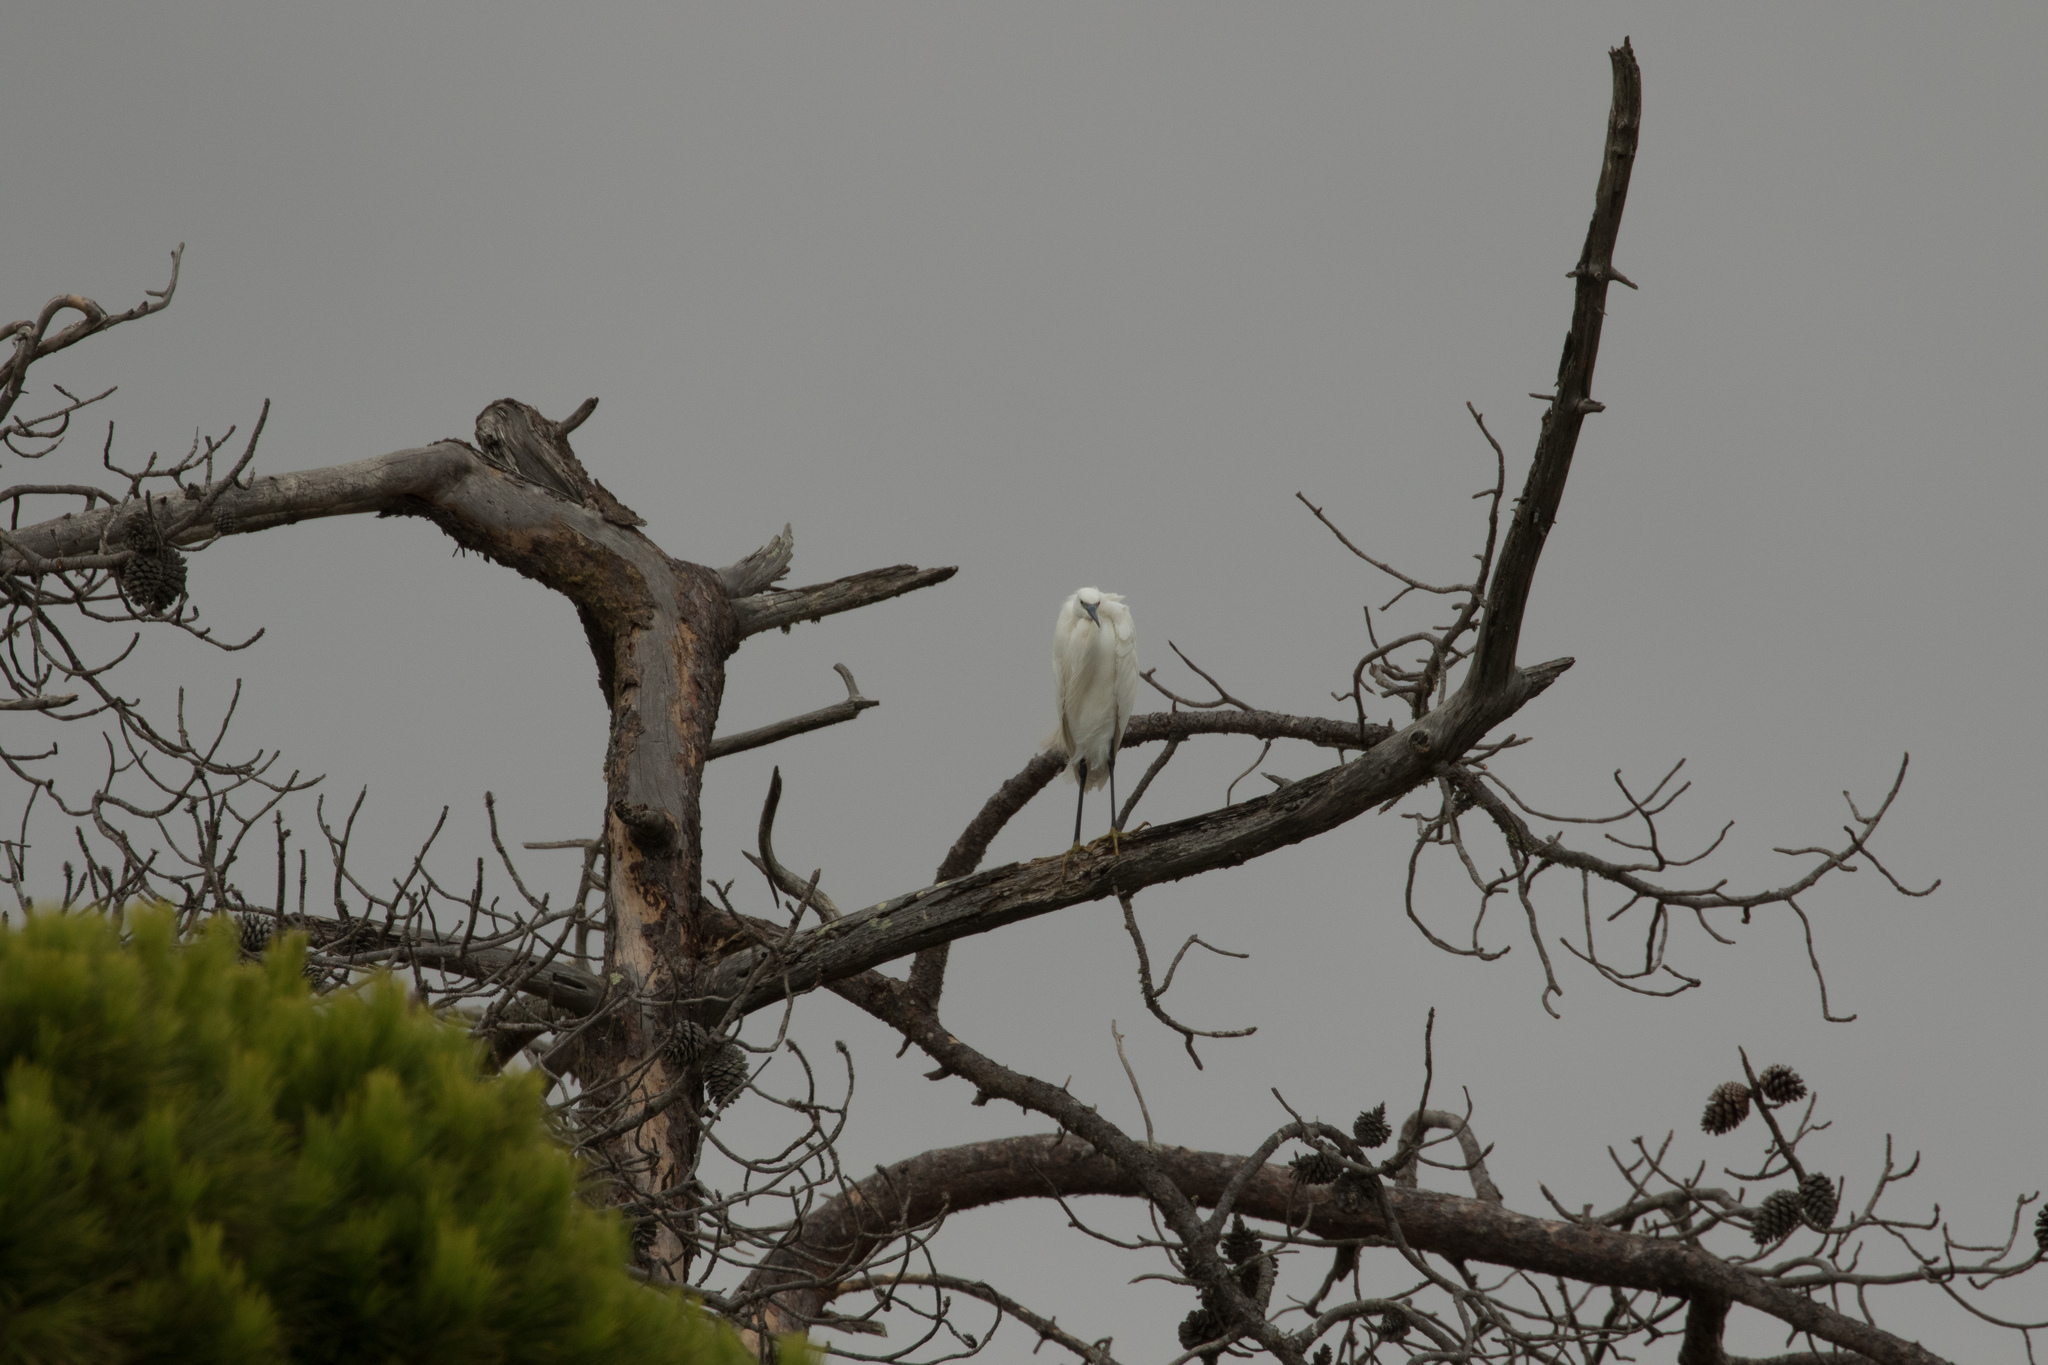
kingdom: Animalia
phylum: Chordata
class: Aves
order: Pelecaniformes
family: Ardeidae
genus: Egretta
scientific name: Egretta garzetta
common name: Little egret
